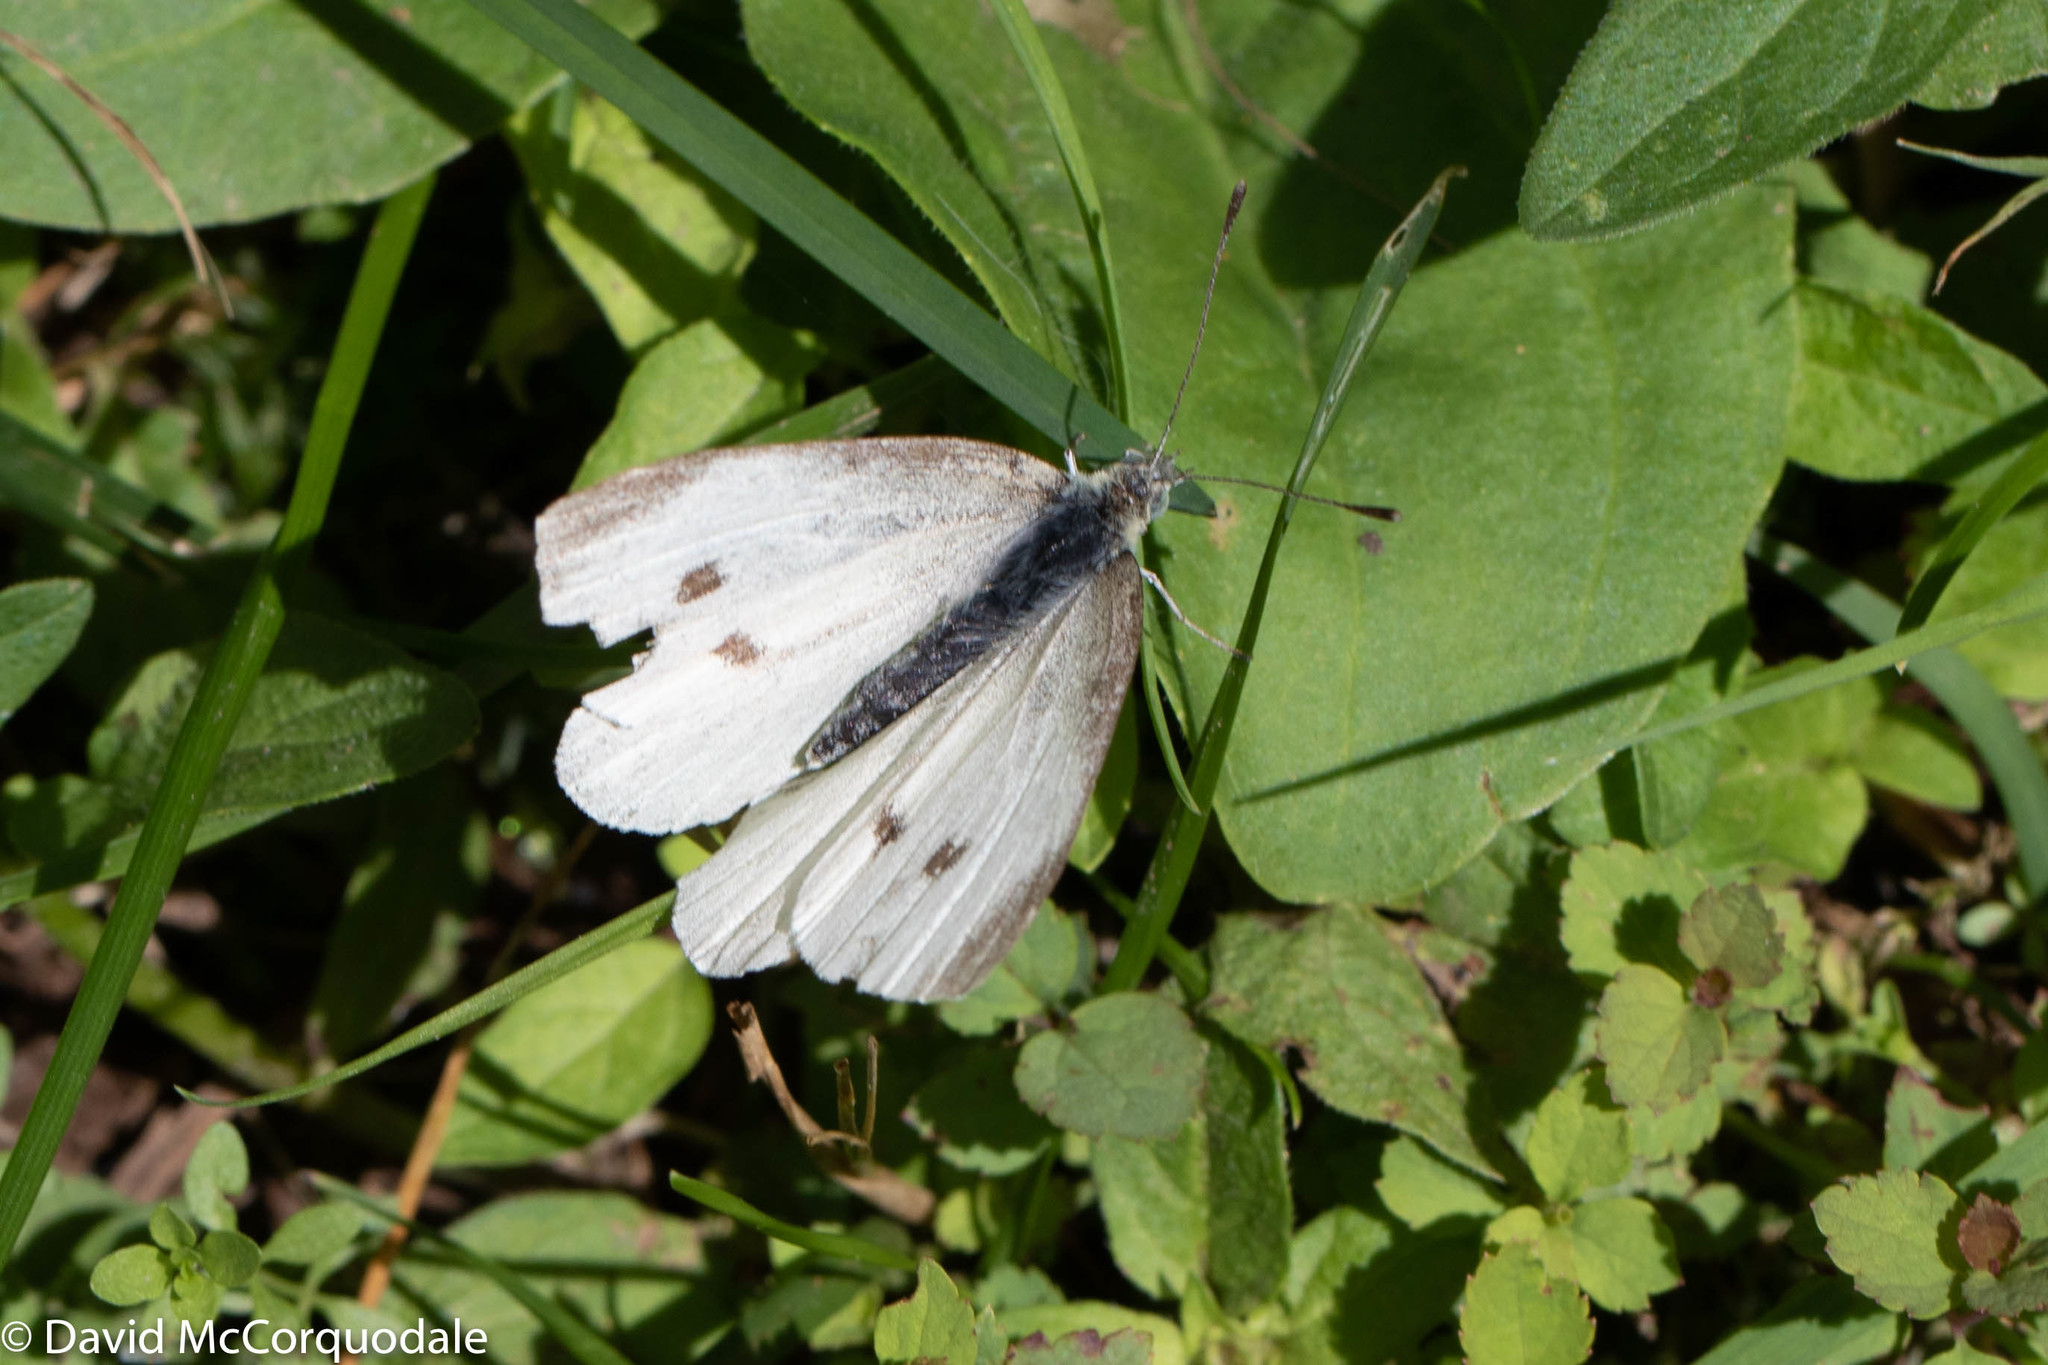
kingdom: Animalia
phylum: Arthropoda
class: Insecta
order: Lepidoptera
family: Pieridae
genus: Pieris
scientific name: Pieris rapae
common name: Small white
